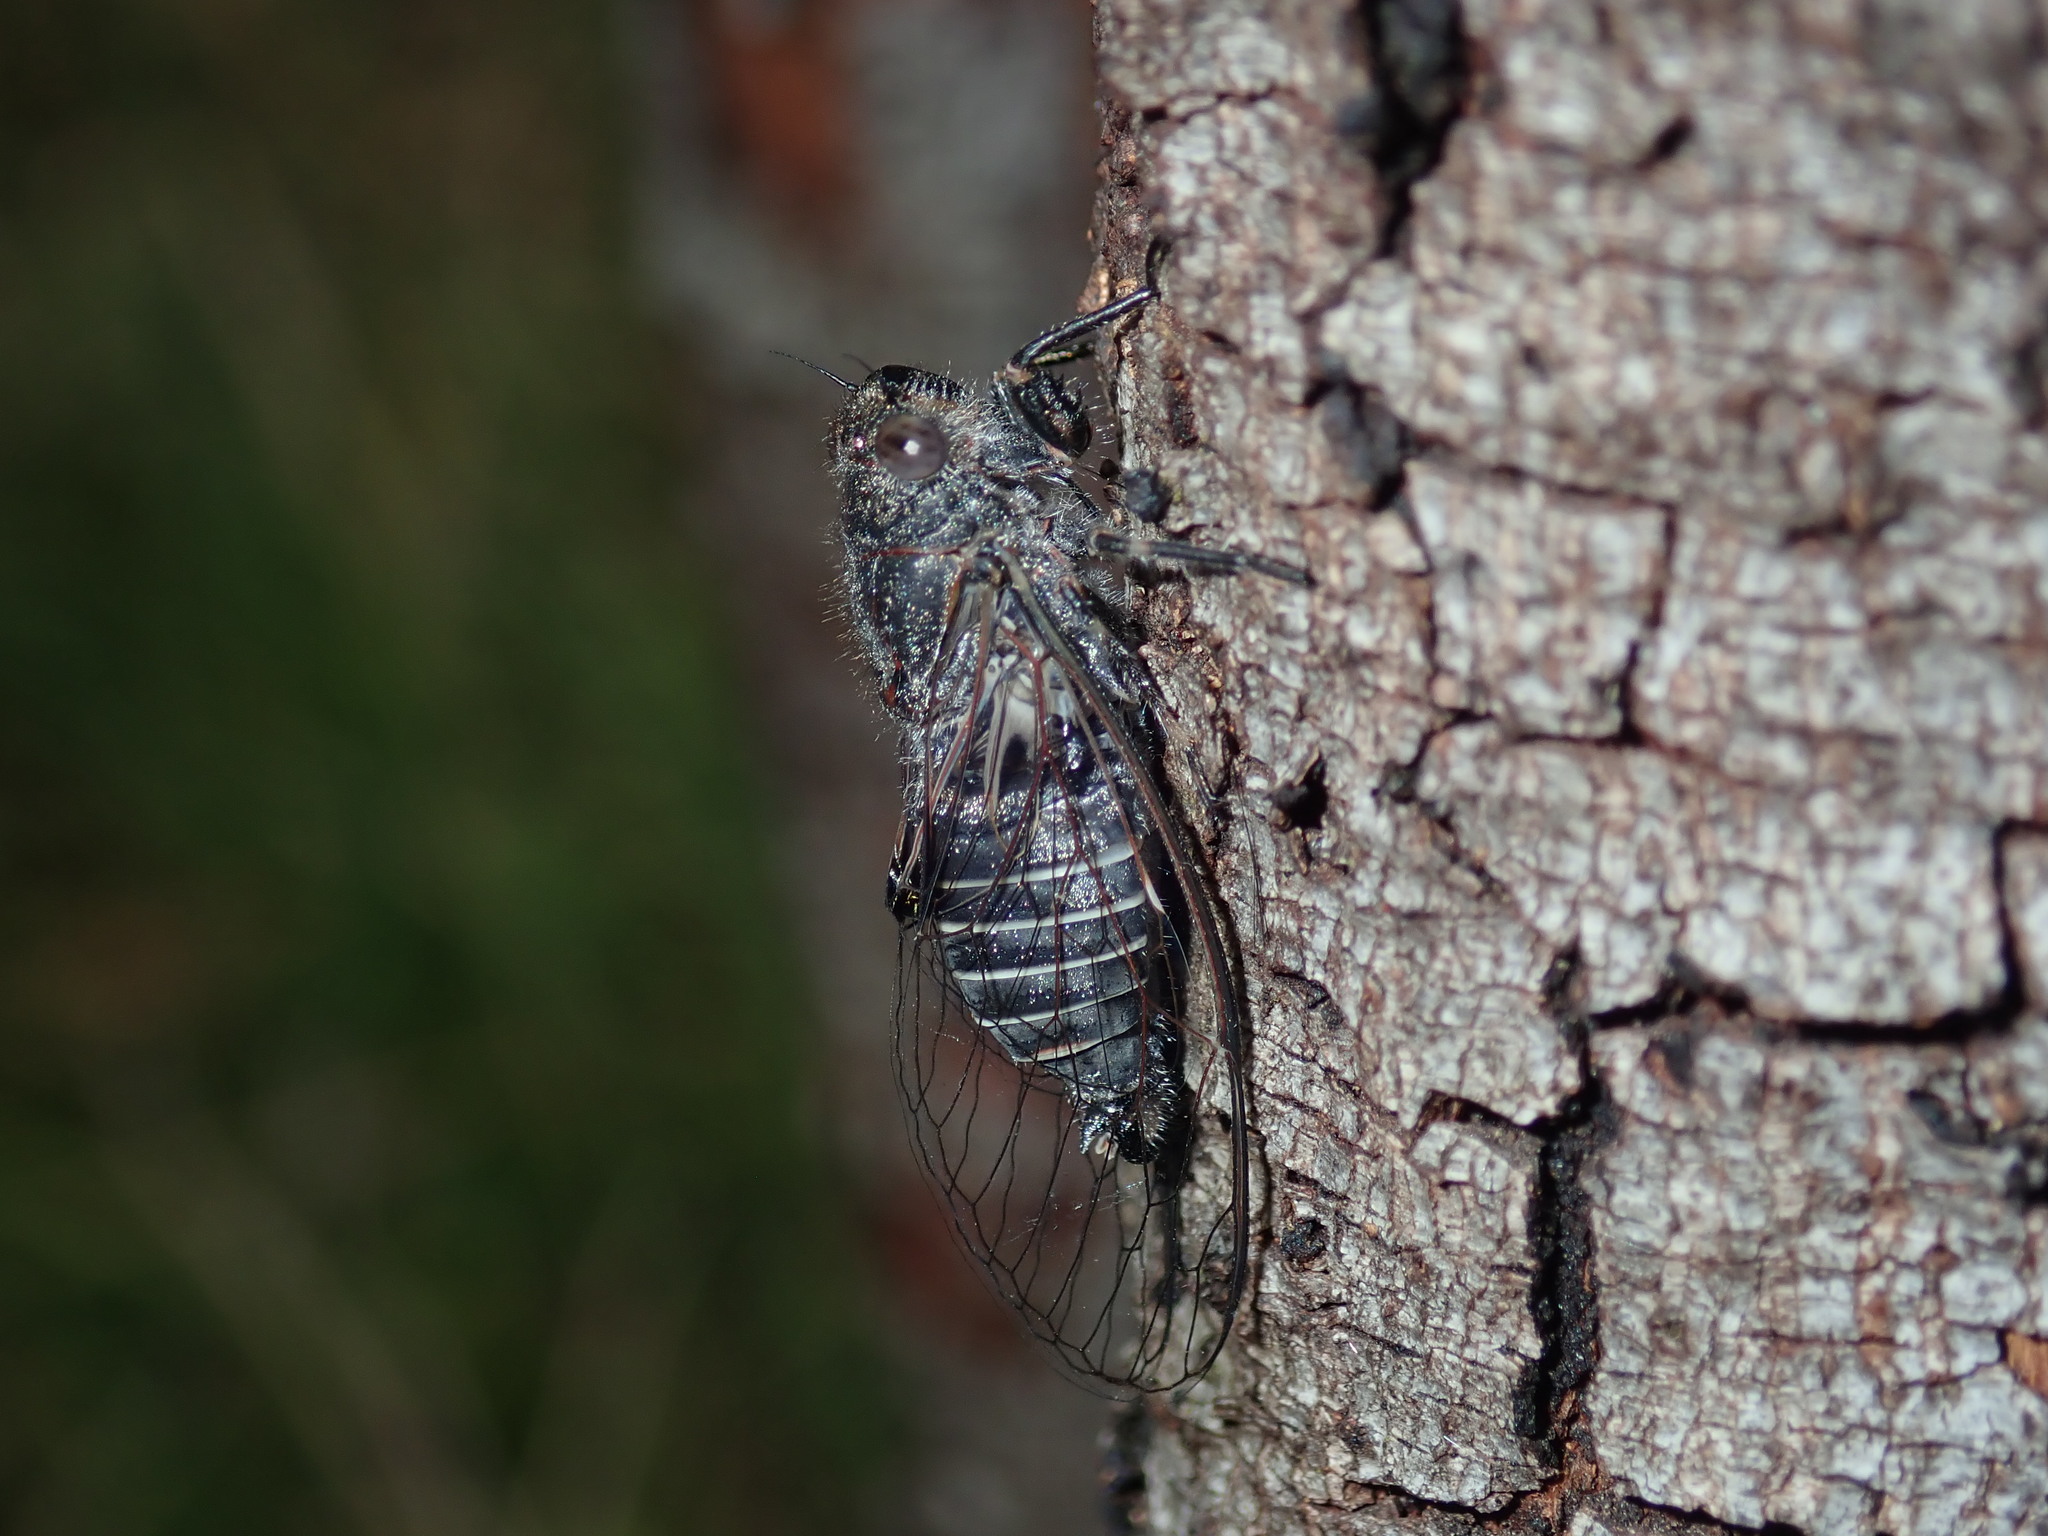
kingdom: Animalia
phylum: Arthropoda
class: Insecta
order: Hemiptera
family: Cicadidae
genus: Atrapsalta
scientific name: Atrapsalta corticina
